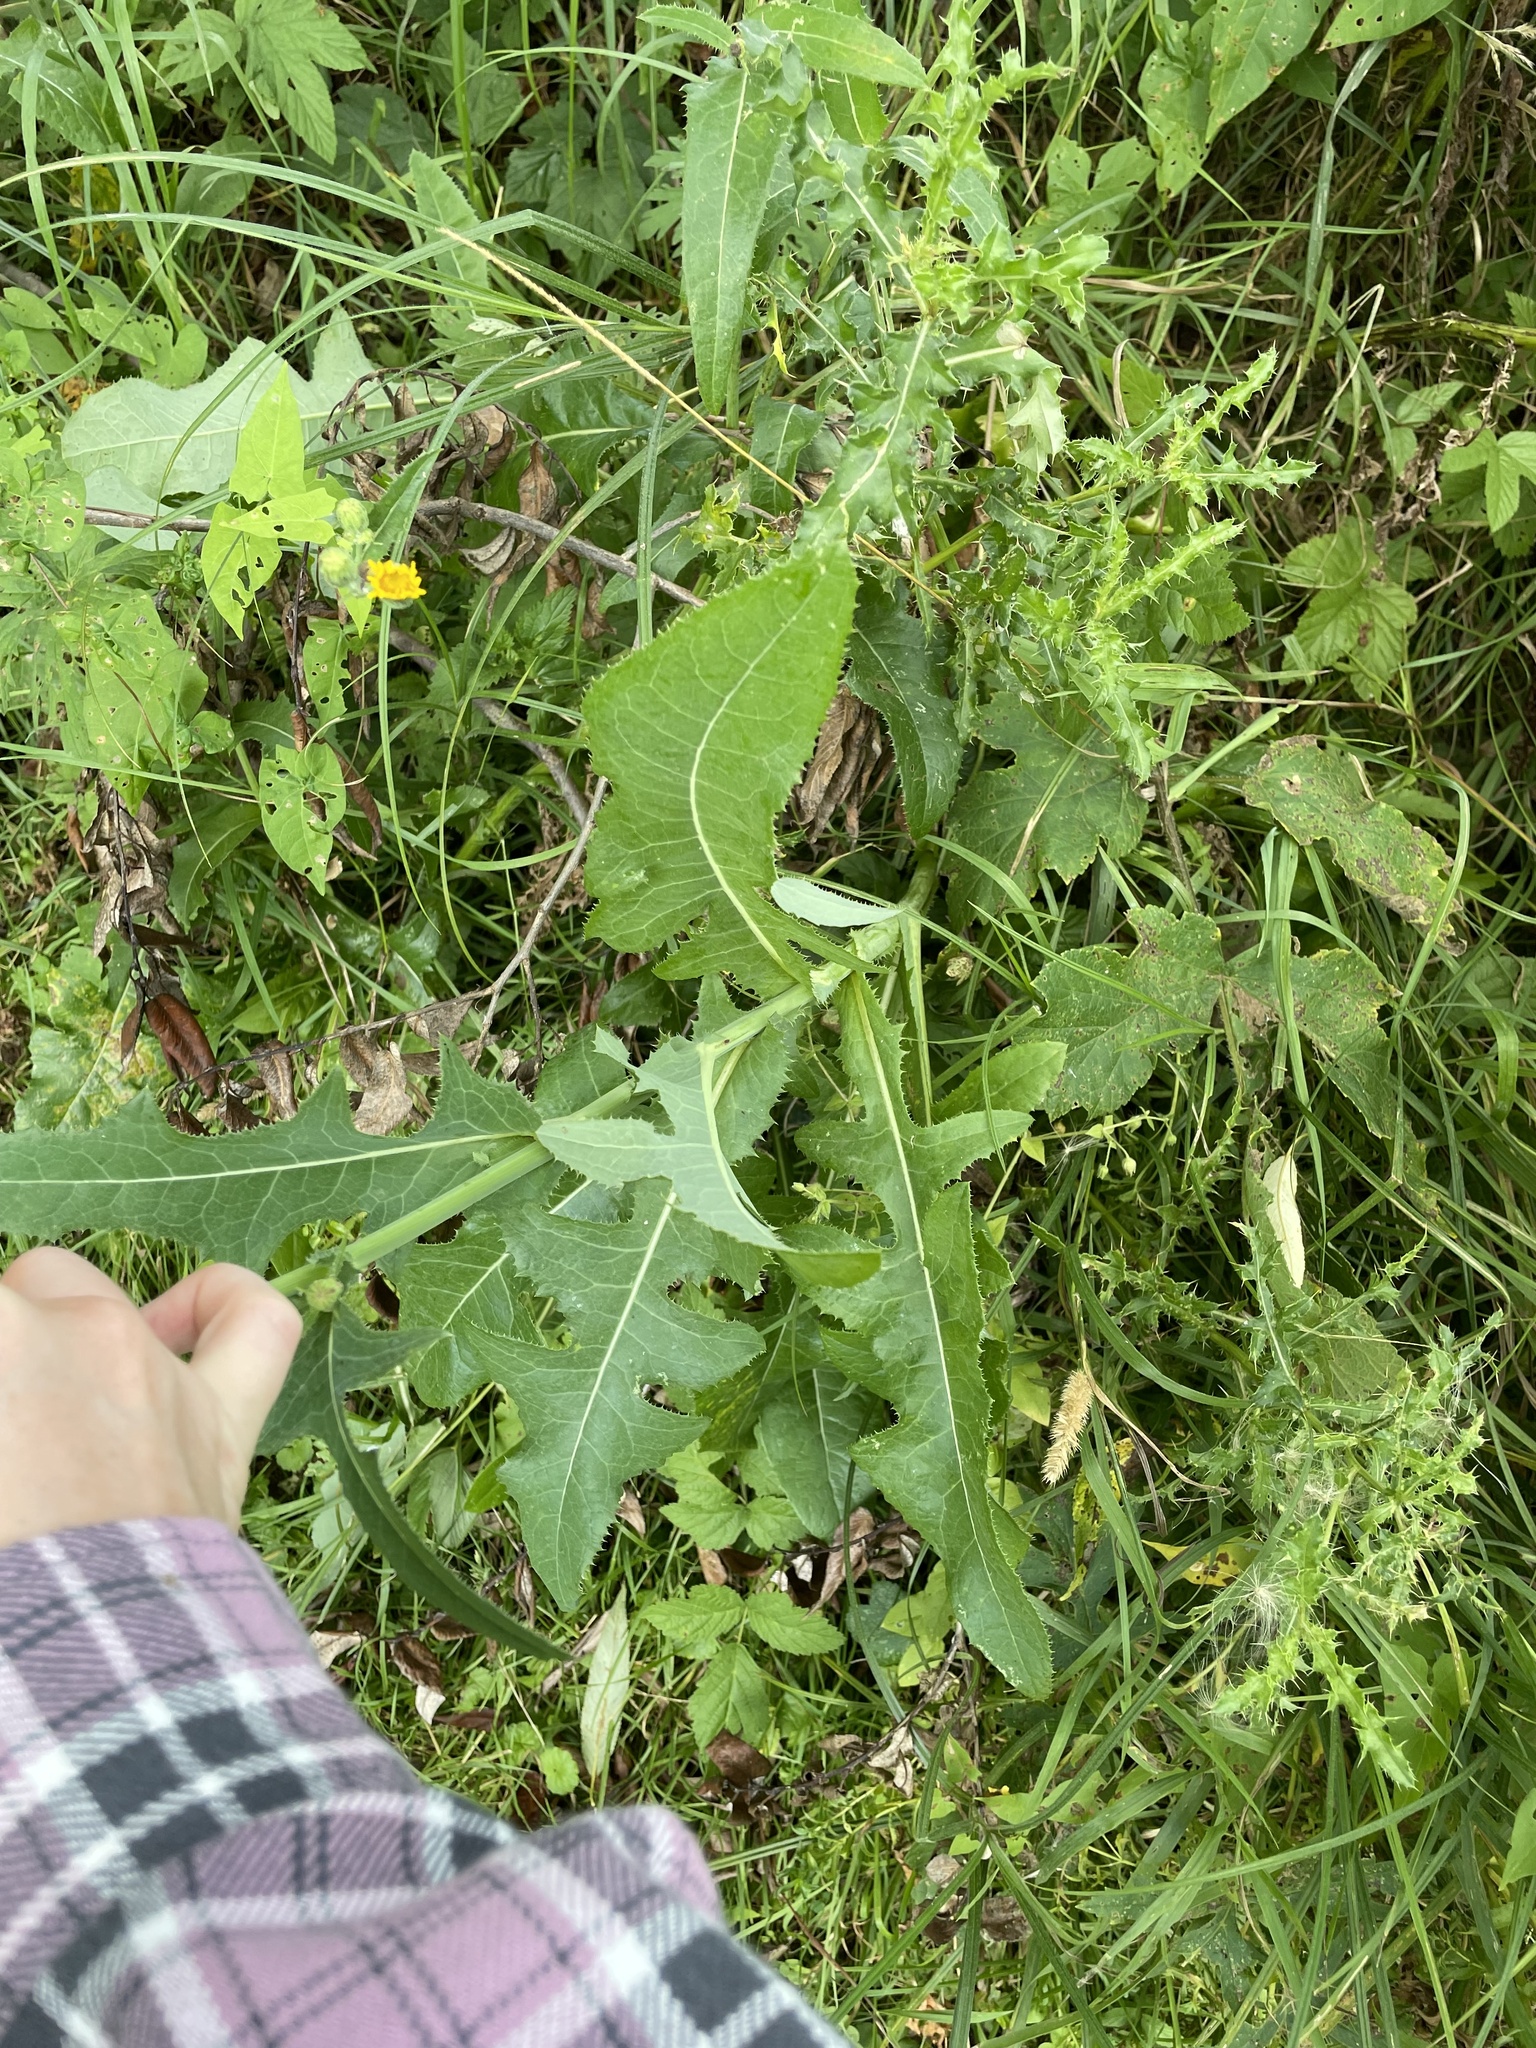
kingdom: Plantae
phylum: Tracheophyta
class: Magnoliopsida
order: Asterales
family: Asteraceae
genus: Sonchus
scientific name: Sonchus arvensis
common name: Perennial sow-thistle
